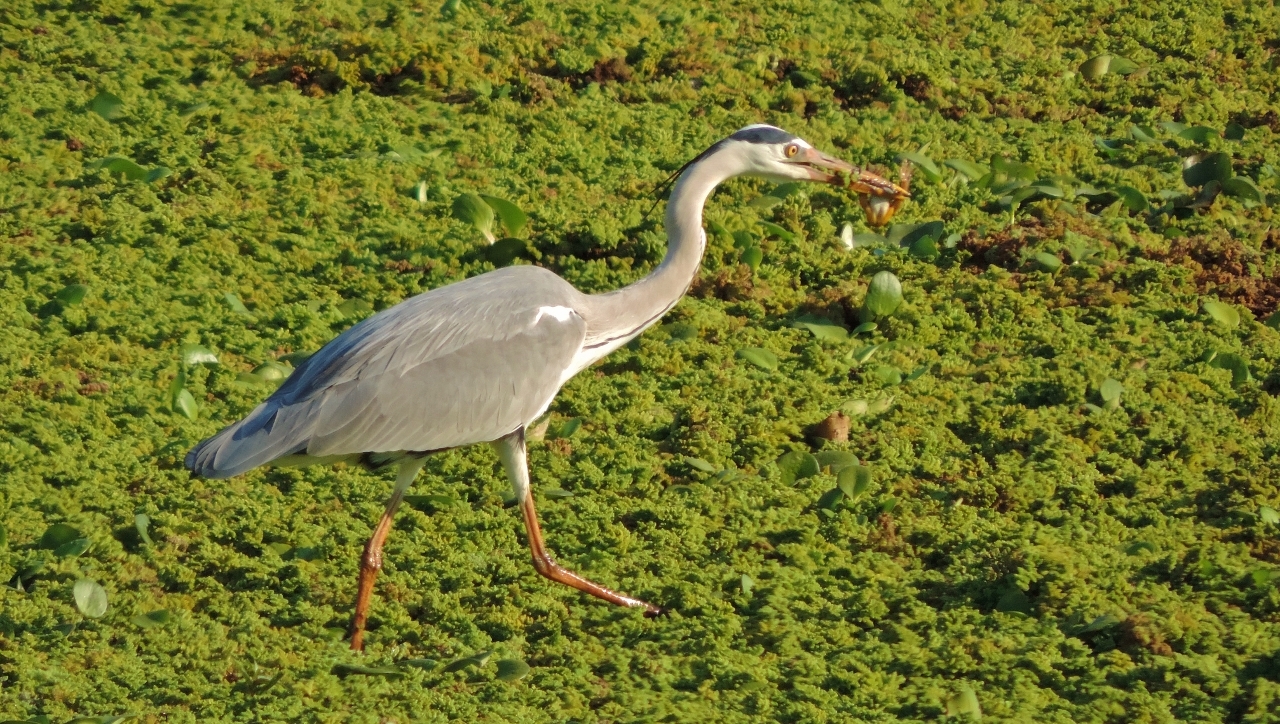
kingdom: Animalia
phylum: Chordata
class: Amphibia
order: Anura
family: Pipidae
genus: Xenopus
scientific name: Xenopus muelleri
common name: Muller's clawed frog
